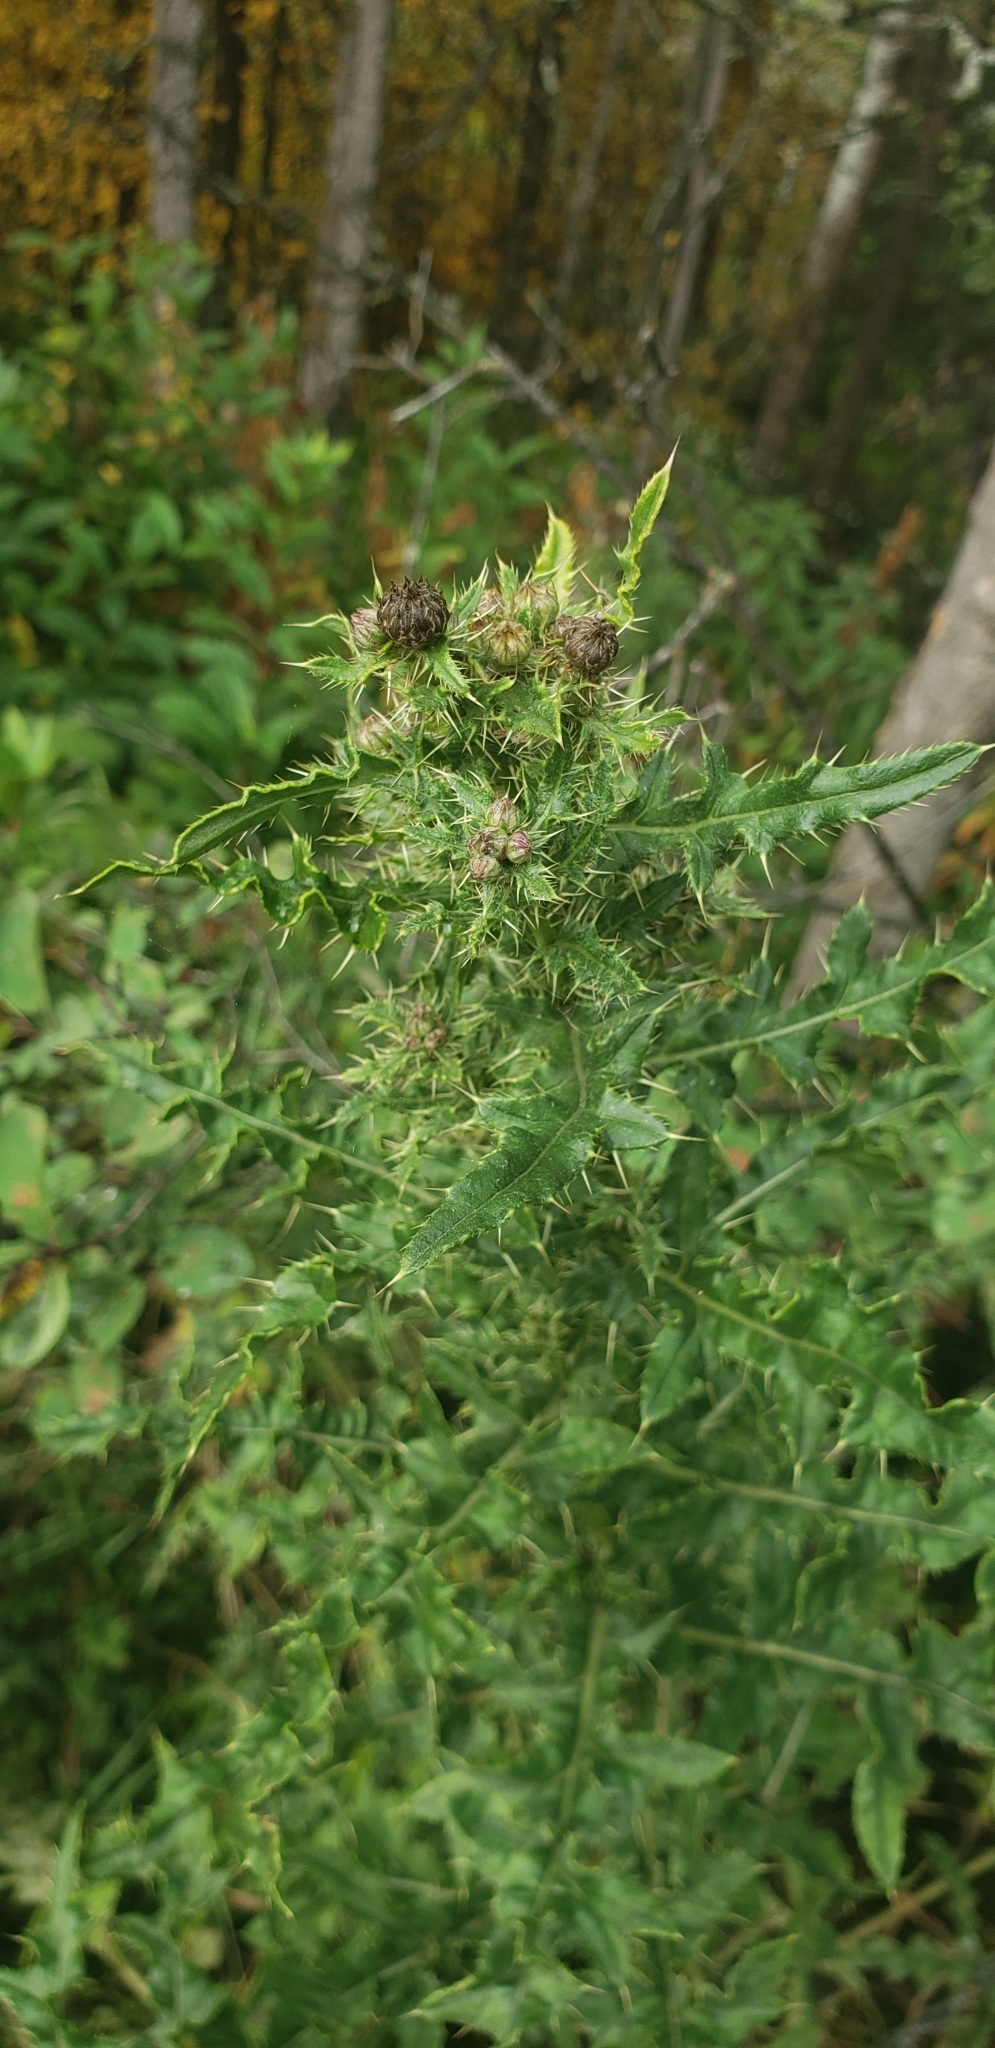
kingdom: Plantae
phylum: Tracheophyta
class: Magnoliopsida
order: Asterales
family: Asteraceae
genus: Cirsium
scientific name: Cirsium arvense
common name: Creeping thistle
